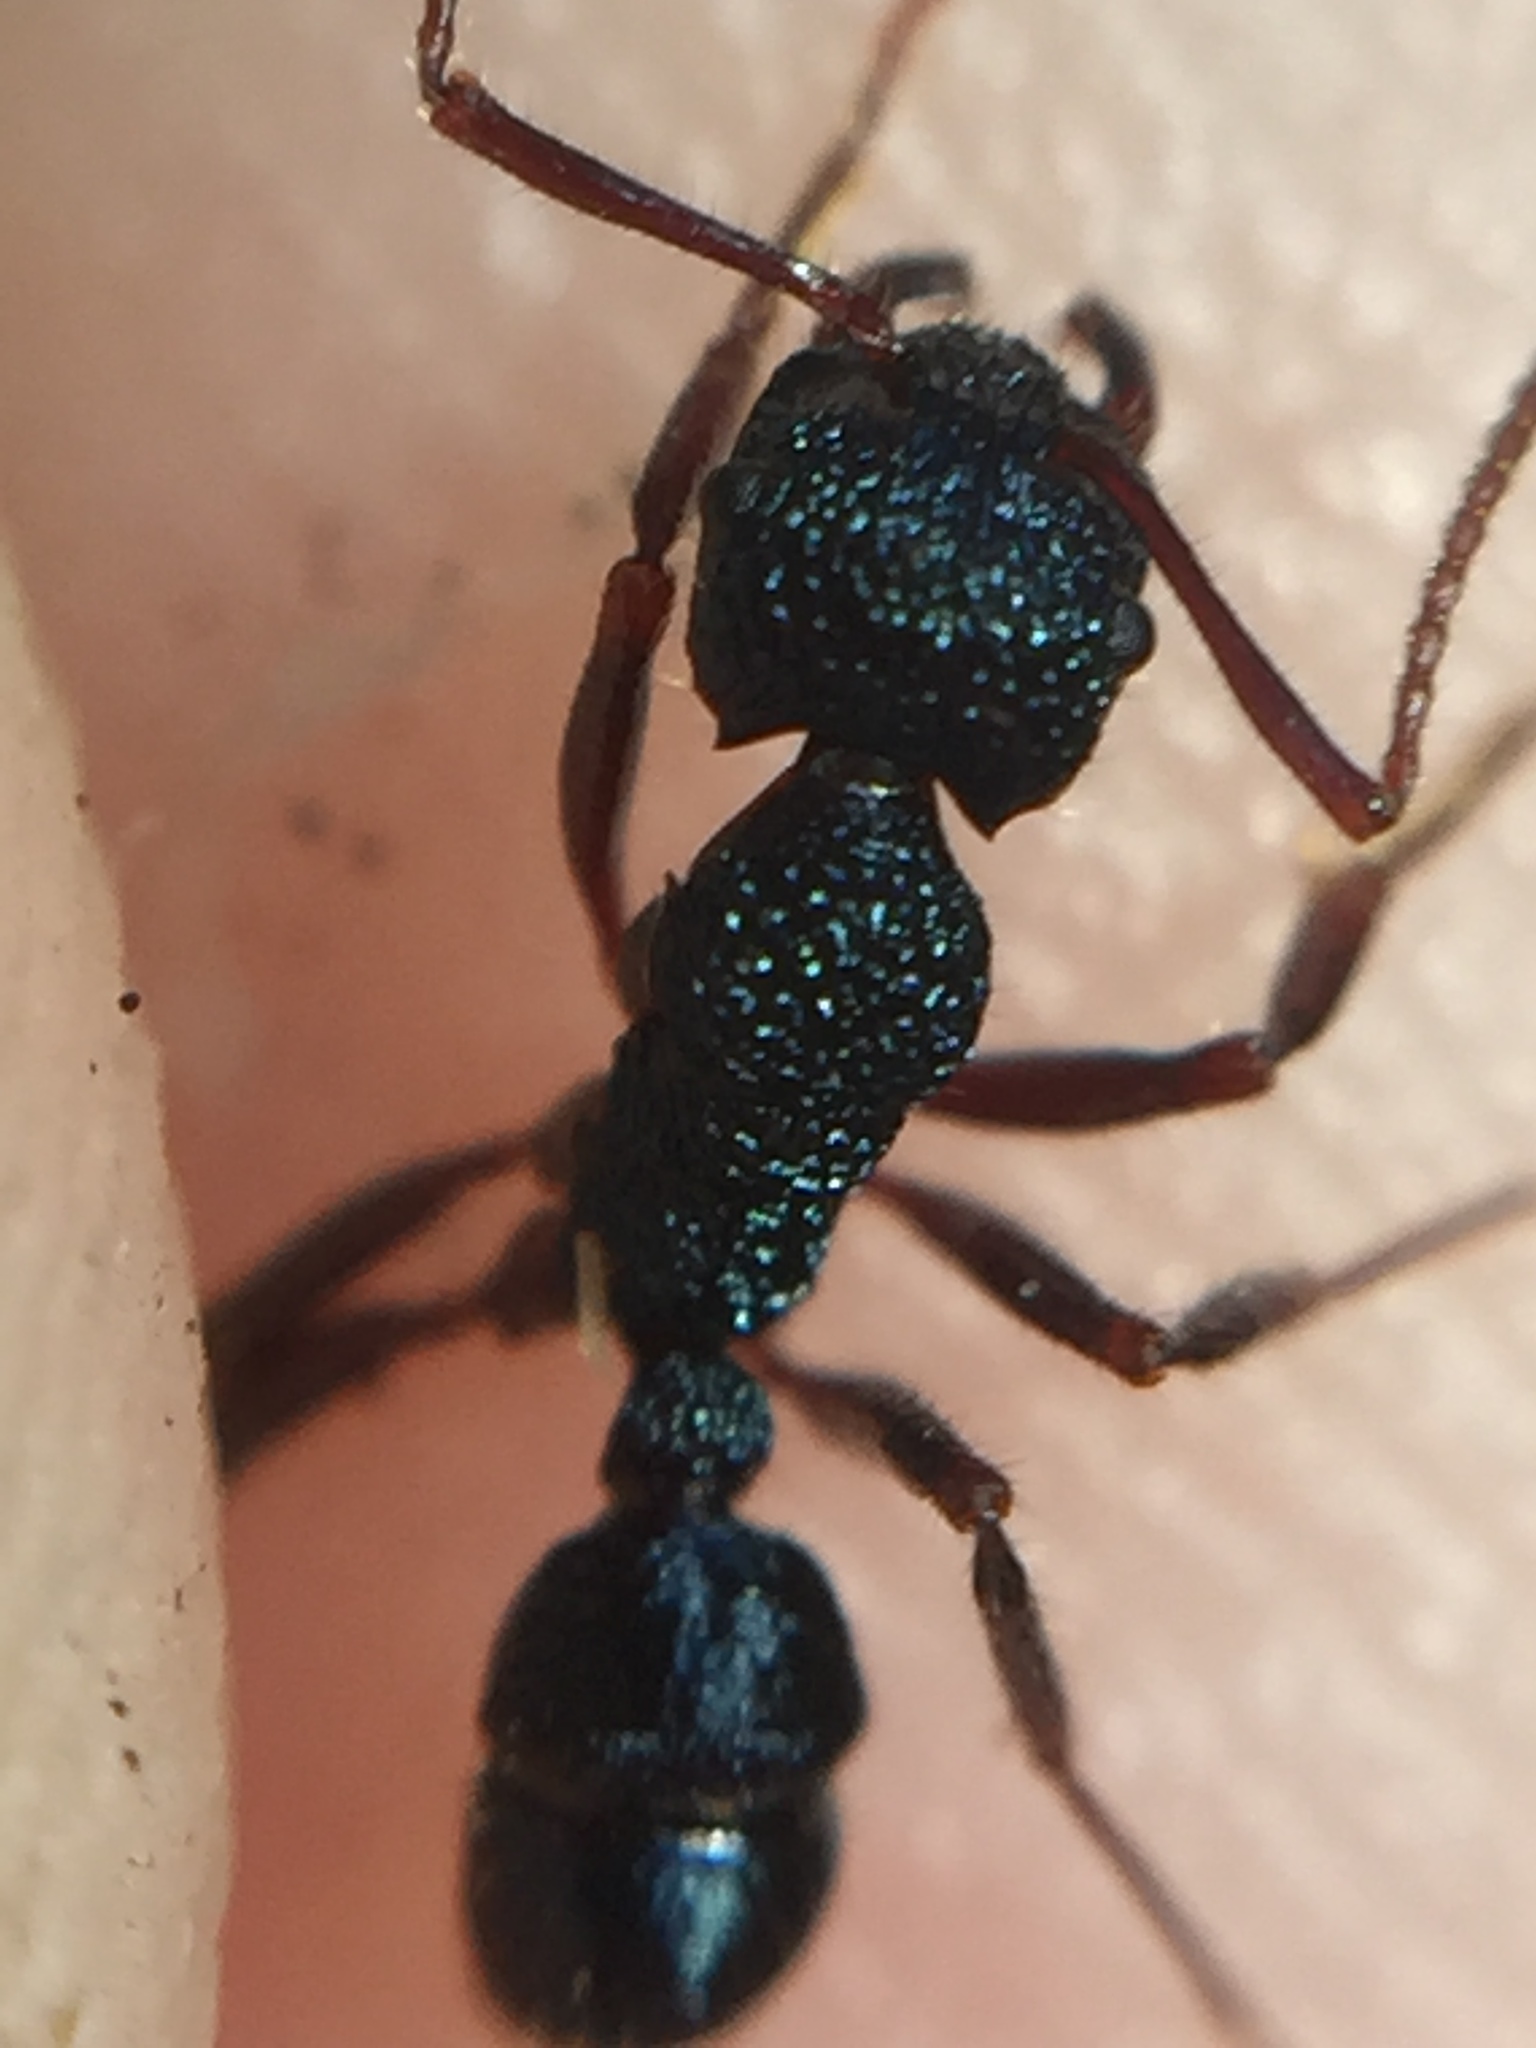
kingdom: Animalia
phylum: Arthropoda
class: Insecta
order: Hymenoptera
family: Formicidae
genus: Rhytidoponera
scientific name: Rhytidoponera chalybaea
